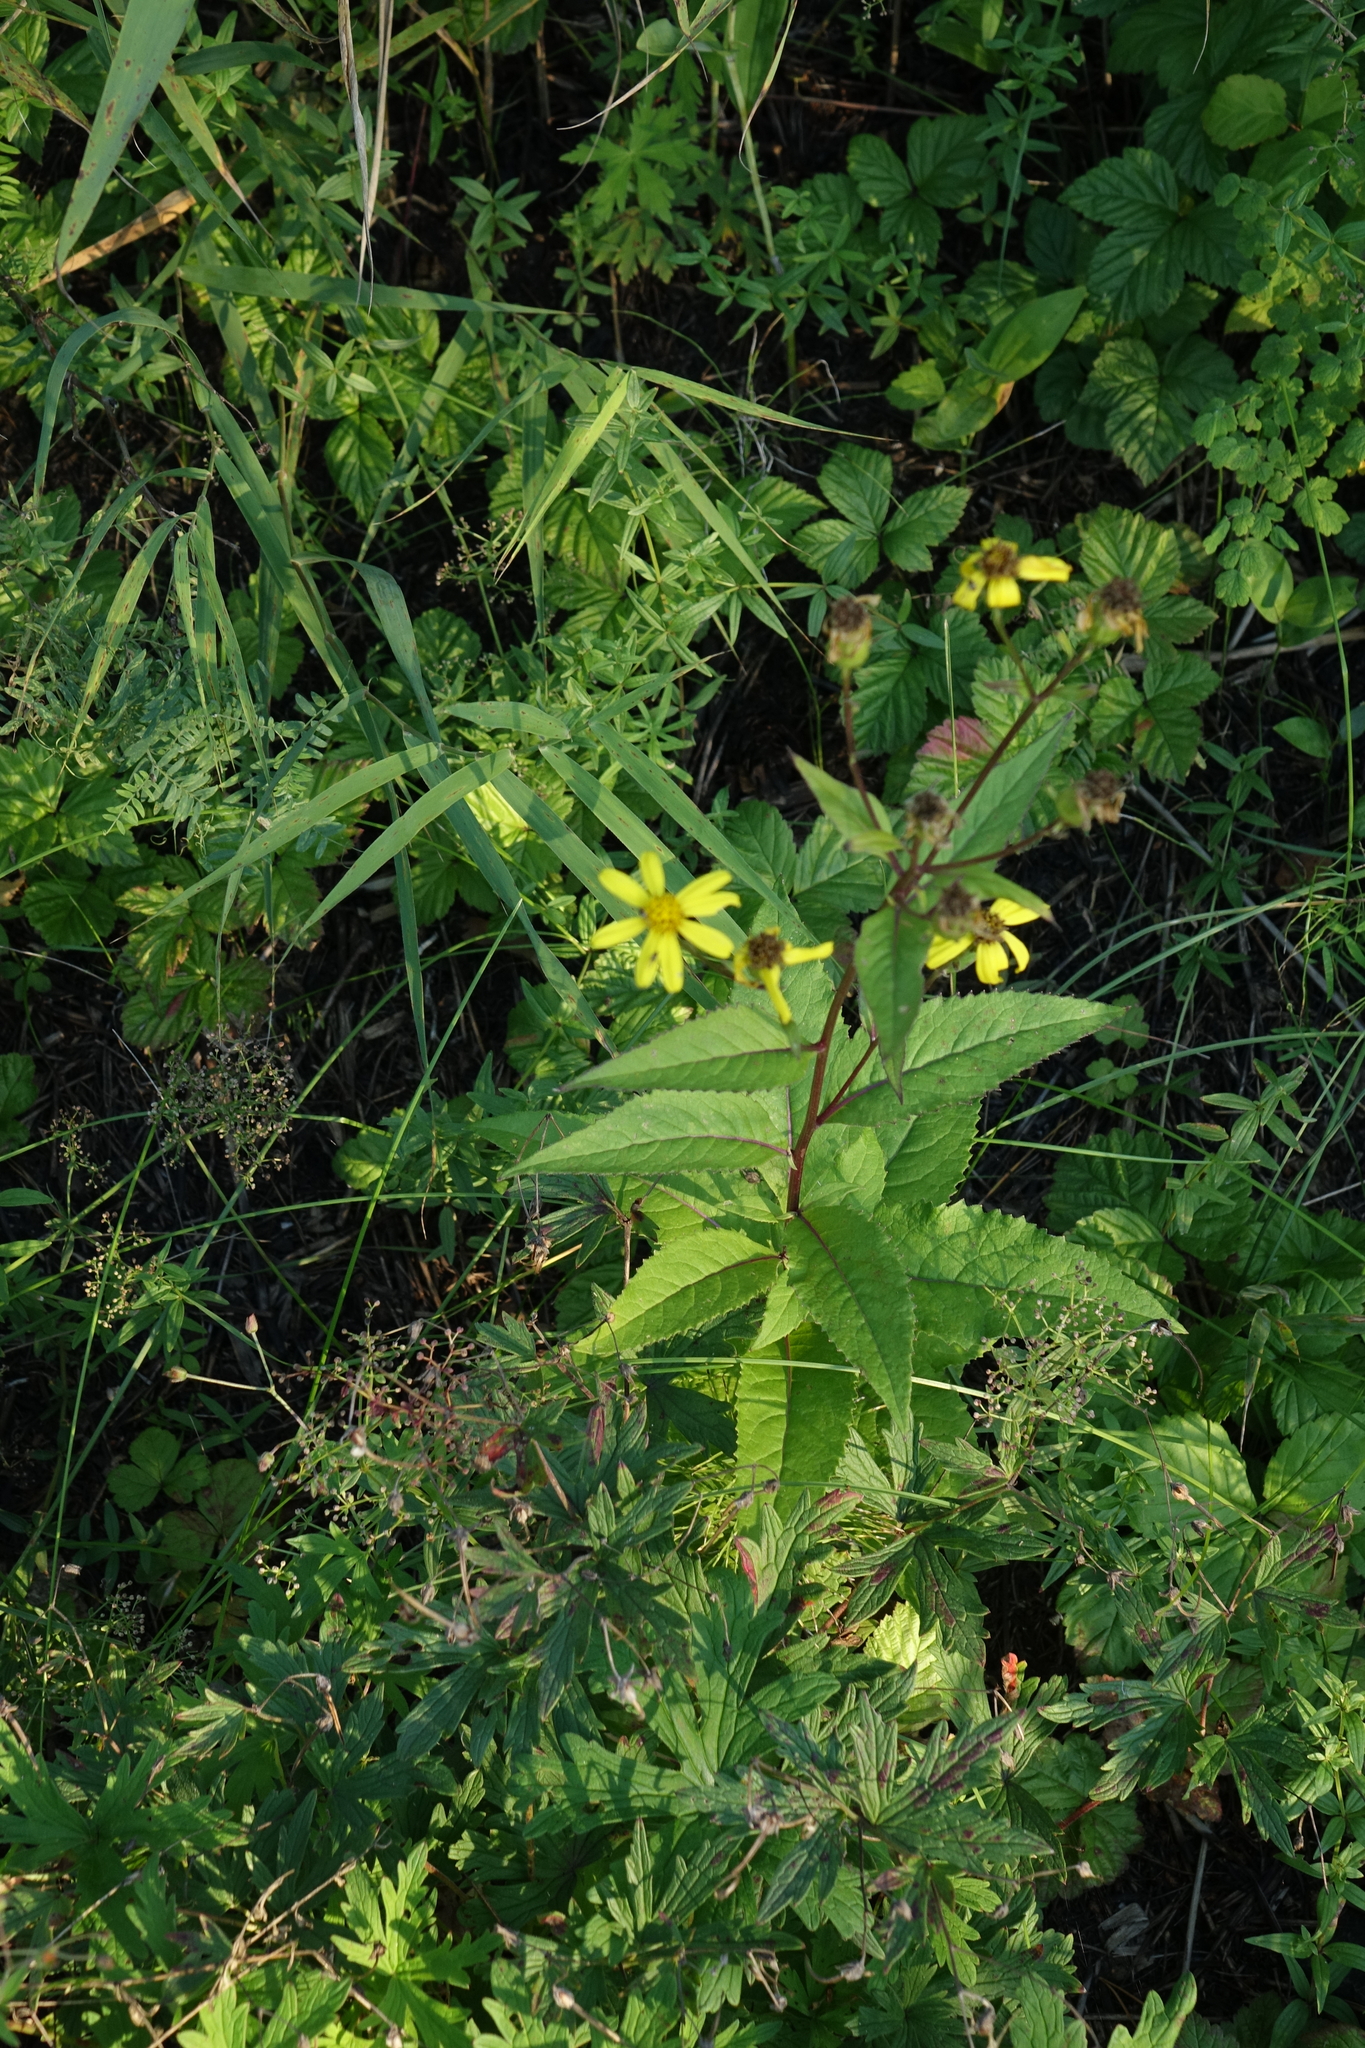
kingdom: Plantae
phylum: Tracheophyta
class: Magnoliopsida
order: Asterales
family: Asteraceae
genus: Senecio
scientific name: Senecio nemorensis
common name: Alpine ragwort
